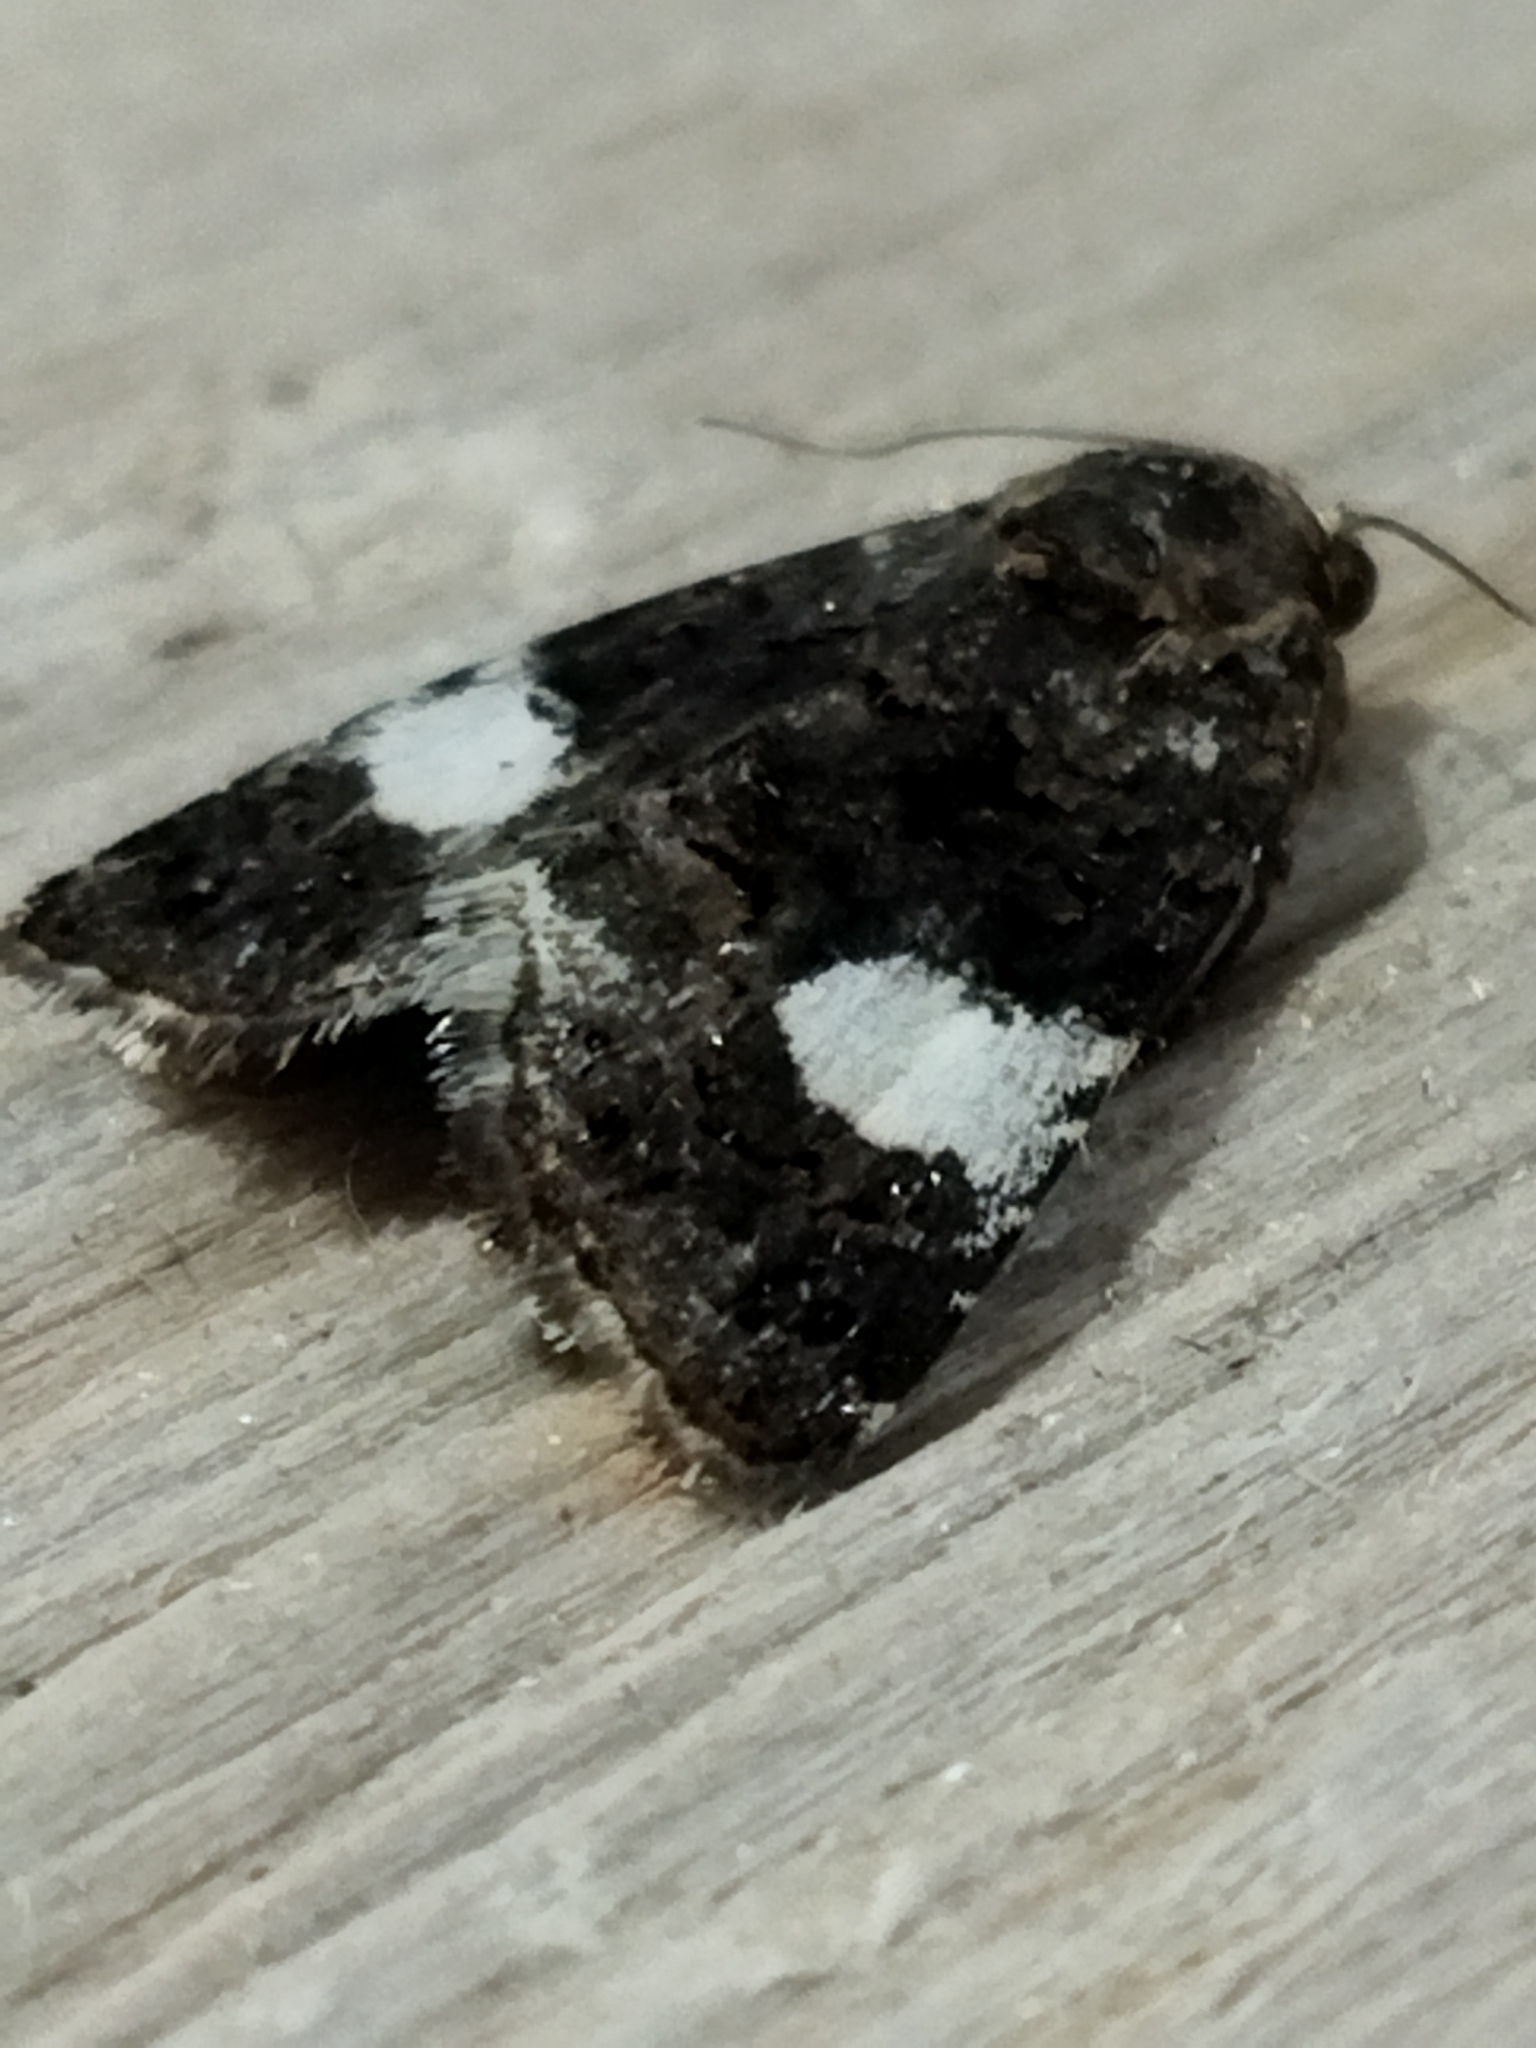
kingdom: Animalia
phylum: Arthropoda
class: Insecta
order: Lepidoptera
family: Erebidae
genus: Tyta
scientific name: Tyta luctuosa
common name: Four-spotted
